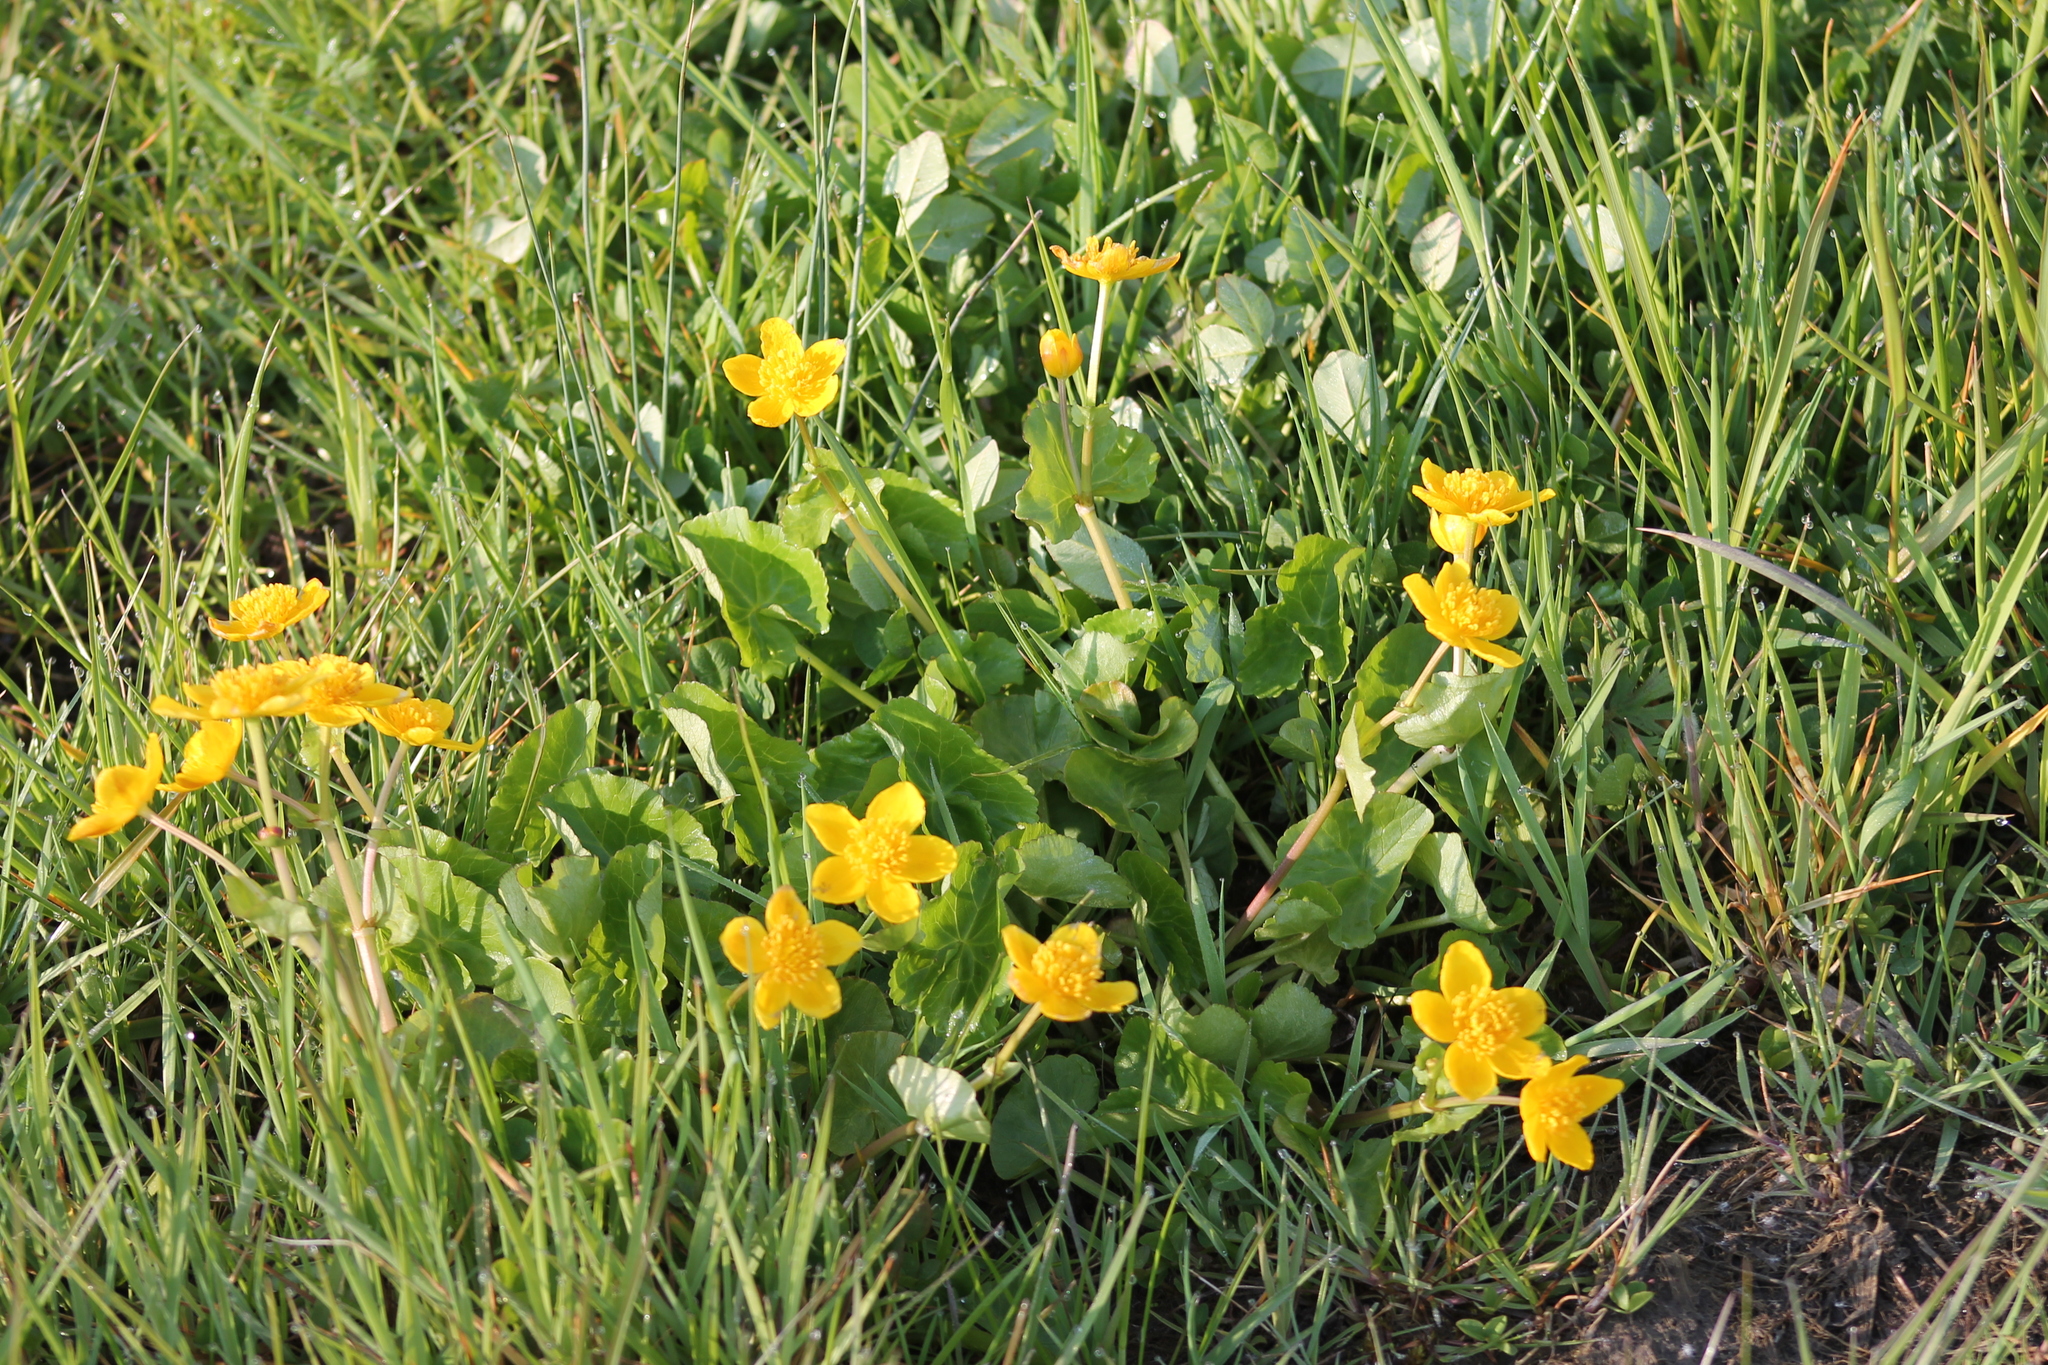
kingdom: Plantae
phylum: Tracheophyta
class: Magnoliopsida
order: Ranunculales
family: Ranunculaceae
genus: Caltha
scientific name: Caltha palustris
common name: Marsh marigold
